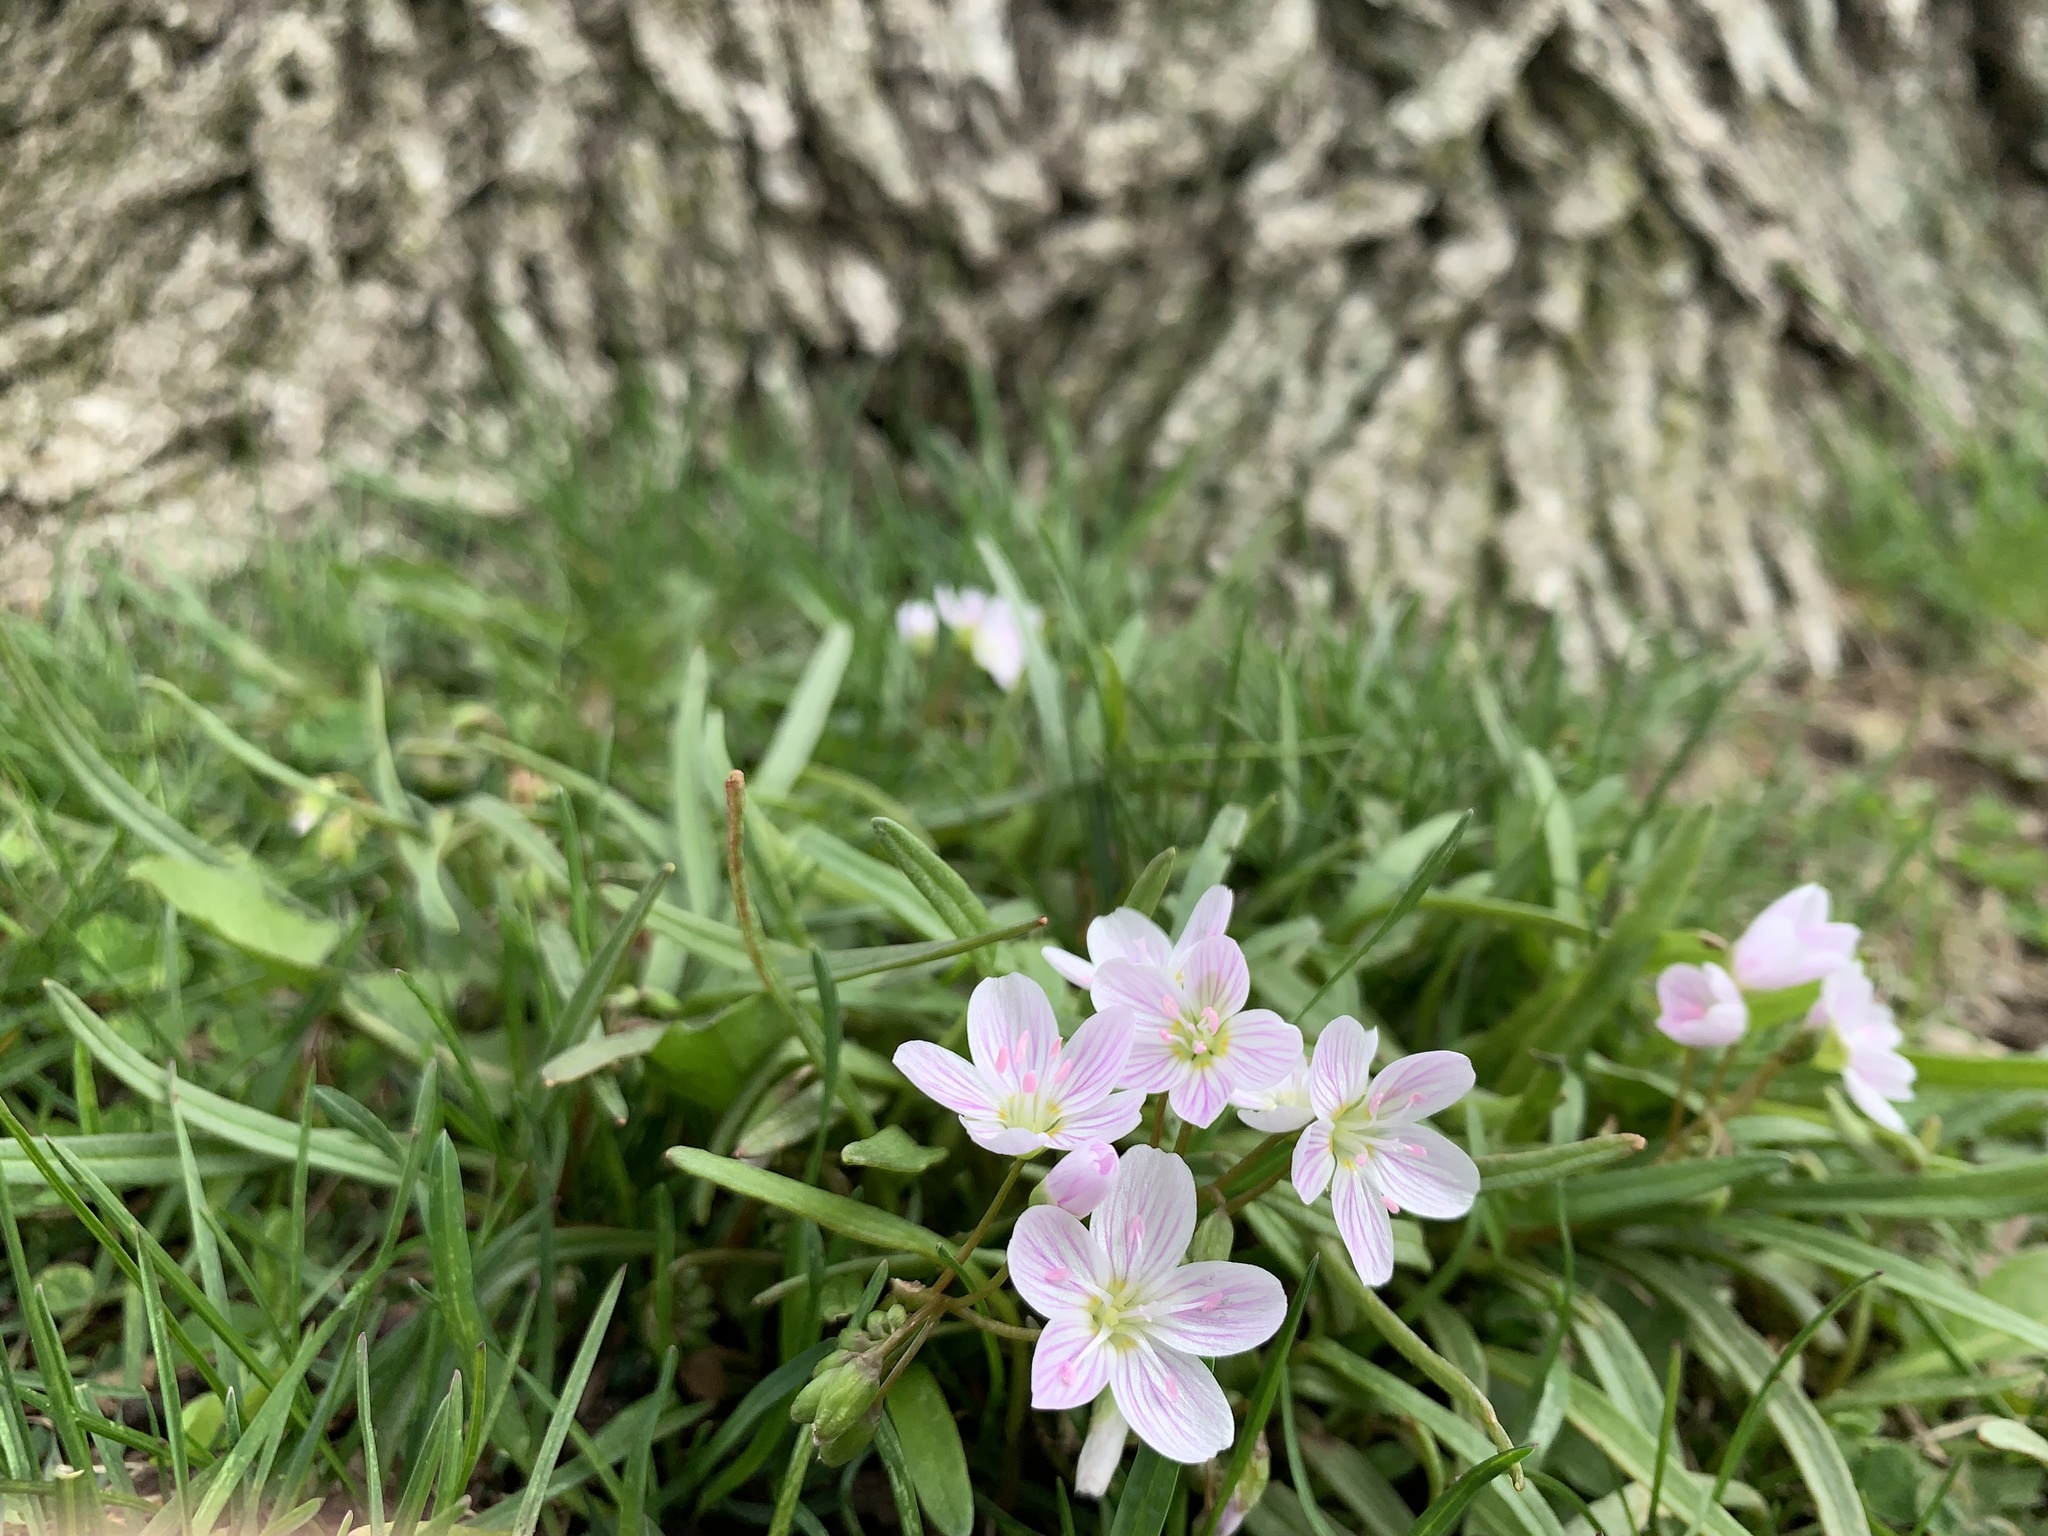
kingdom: Plantae
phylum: Tracheophyta
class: Magnoliopsida
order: Caryophyllales
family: Montiaceae
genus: Claytonia
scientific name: Claytonia virginica
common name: Virginia springbeauty
